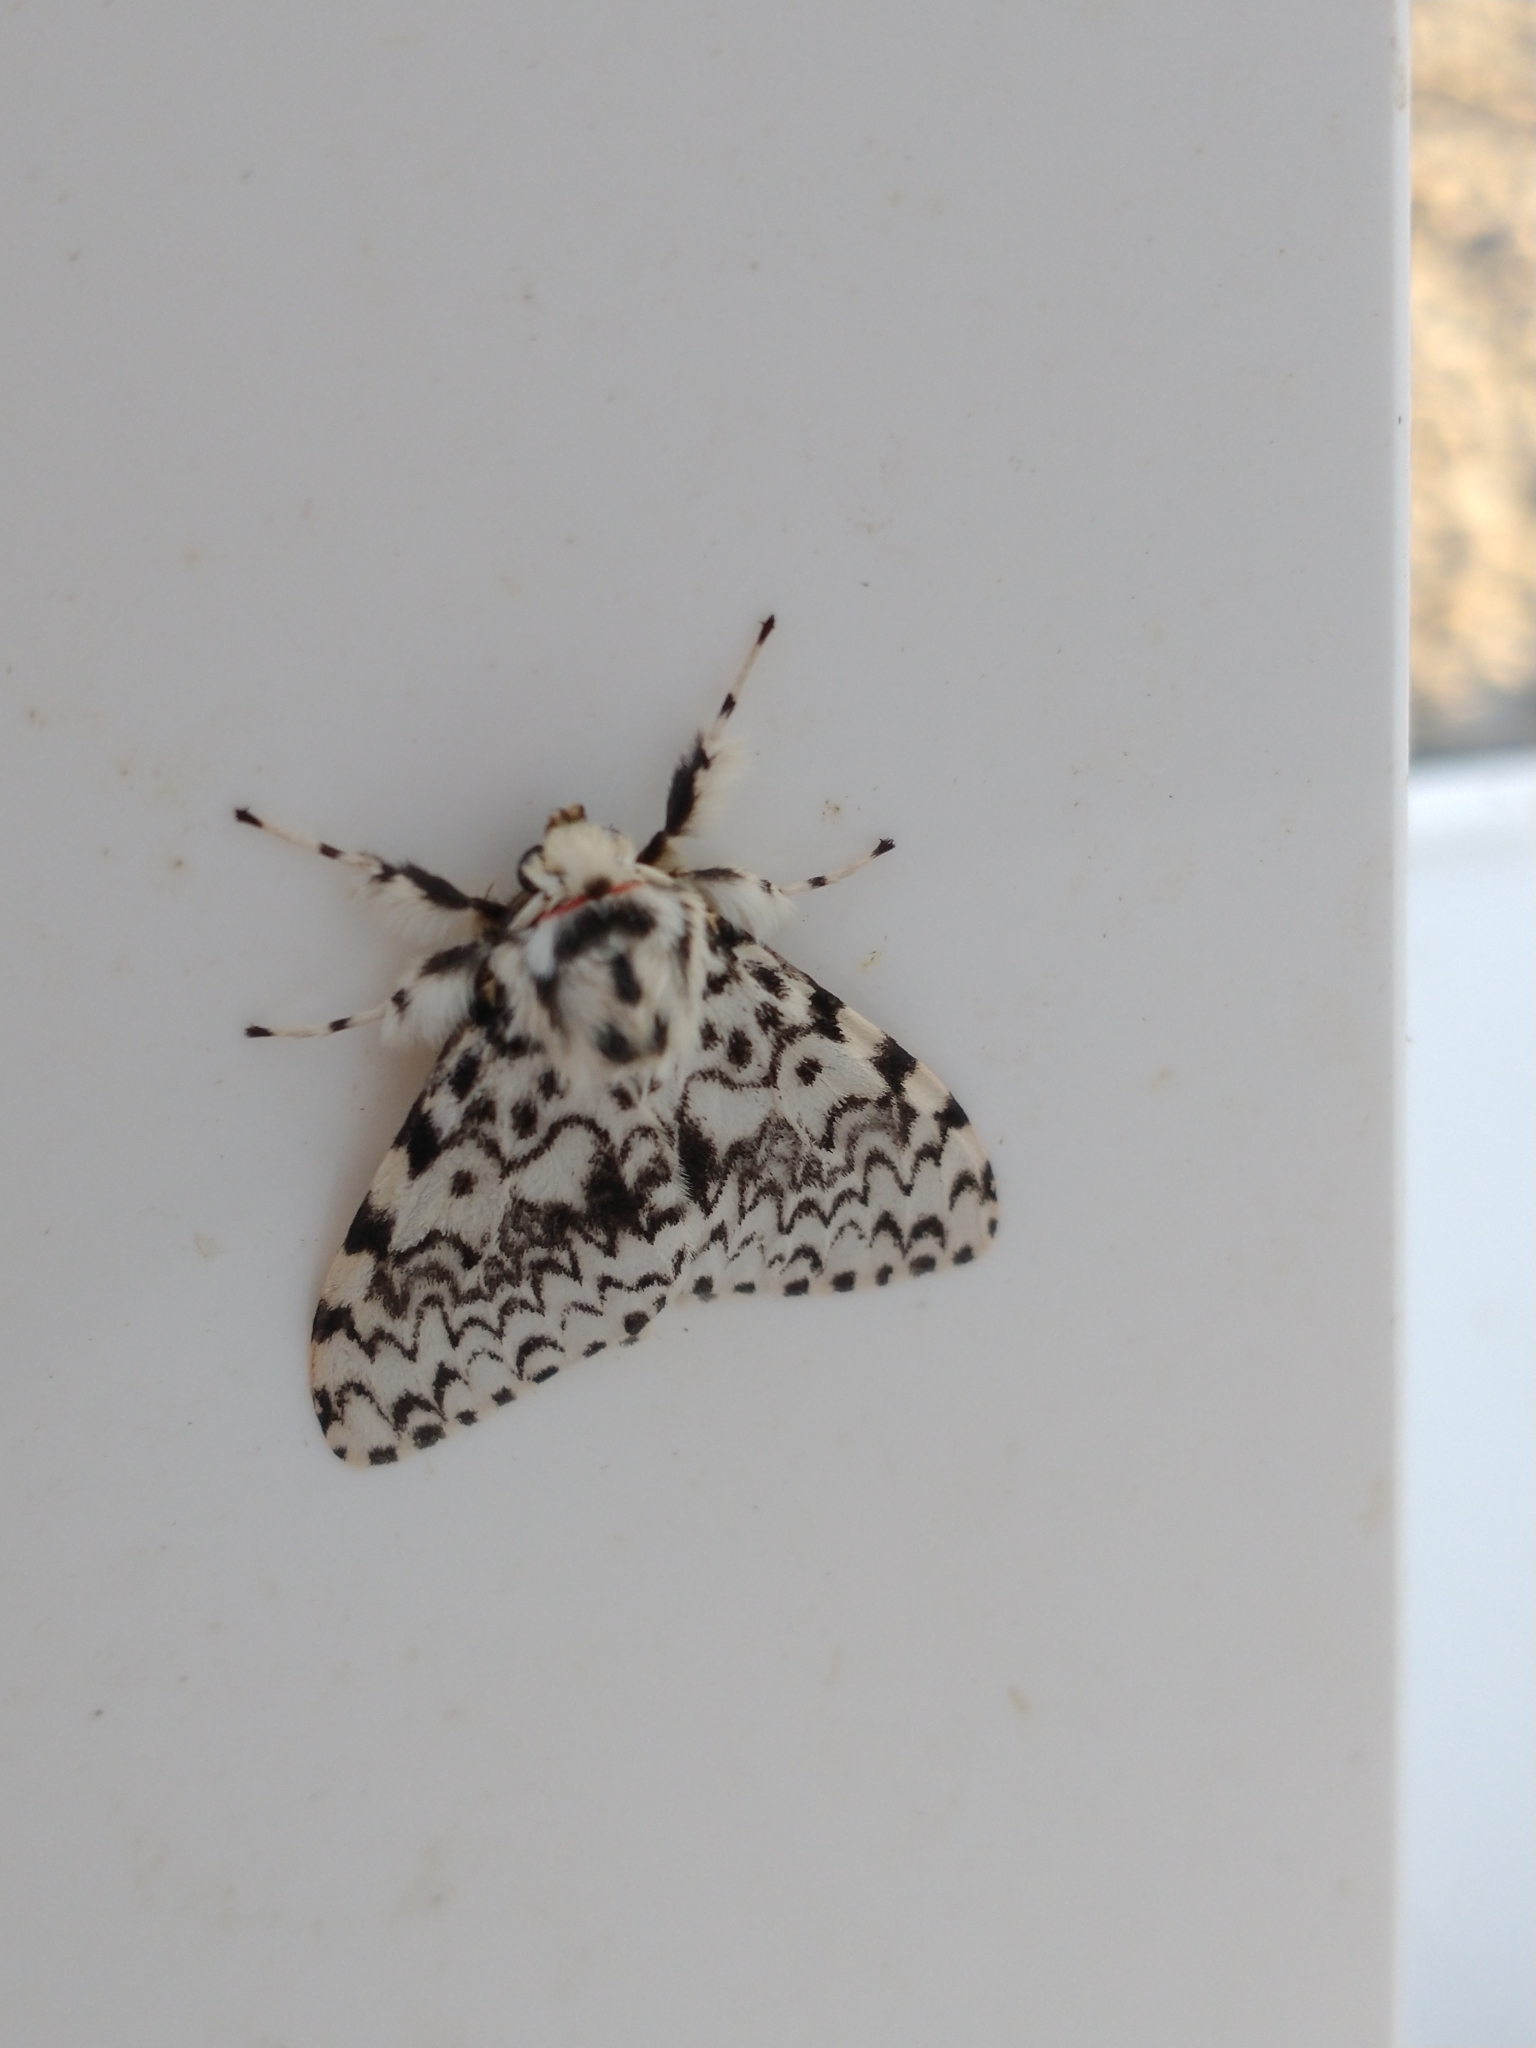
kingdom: Animalia
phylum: Arthropoda
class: Insecta
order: Lepidoptera
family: Erebidae
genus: Lymantria
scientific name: Lymantria monacha
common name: Black arches
